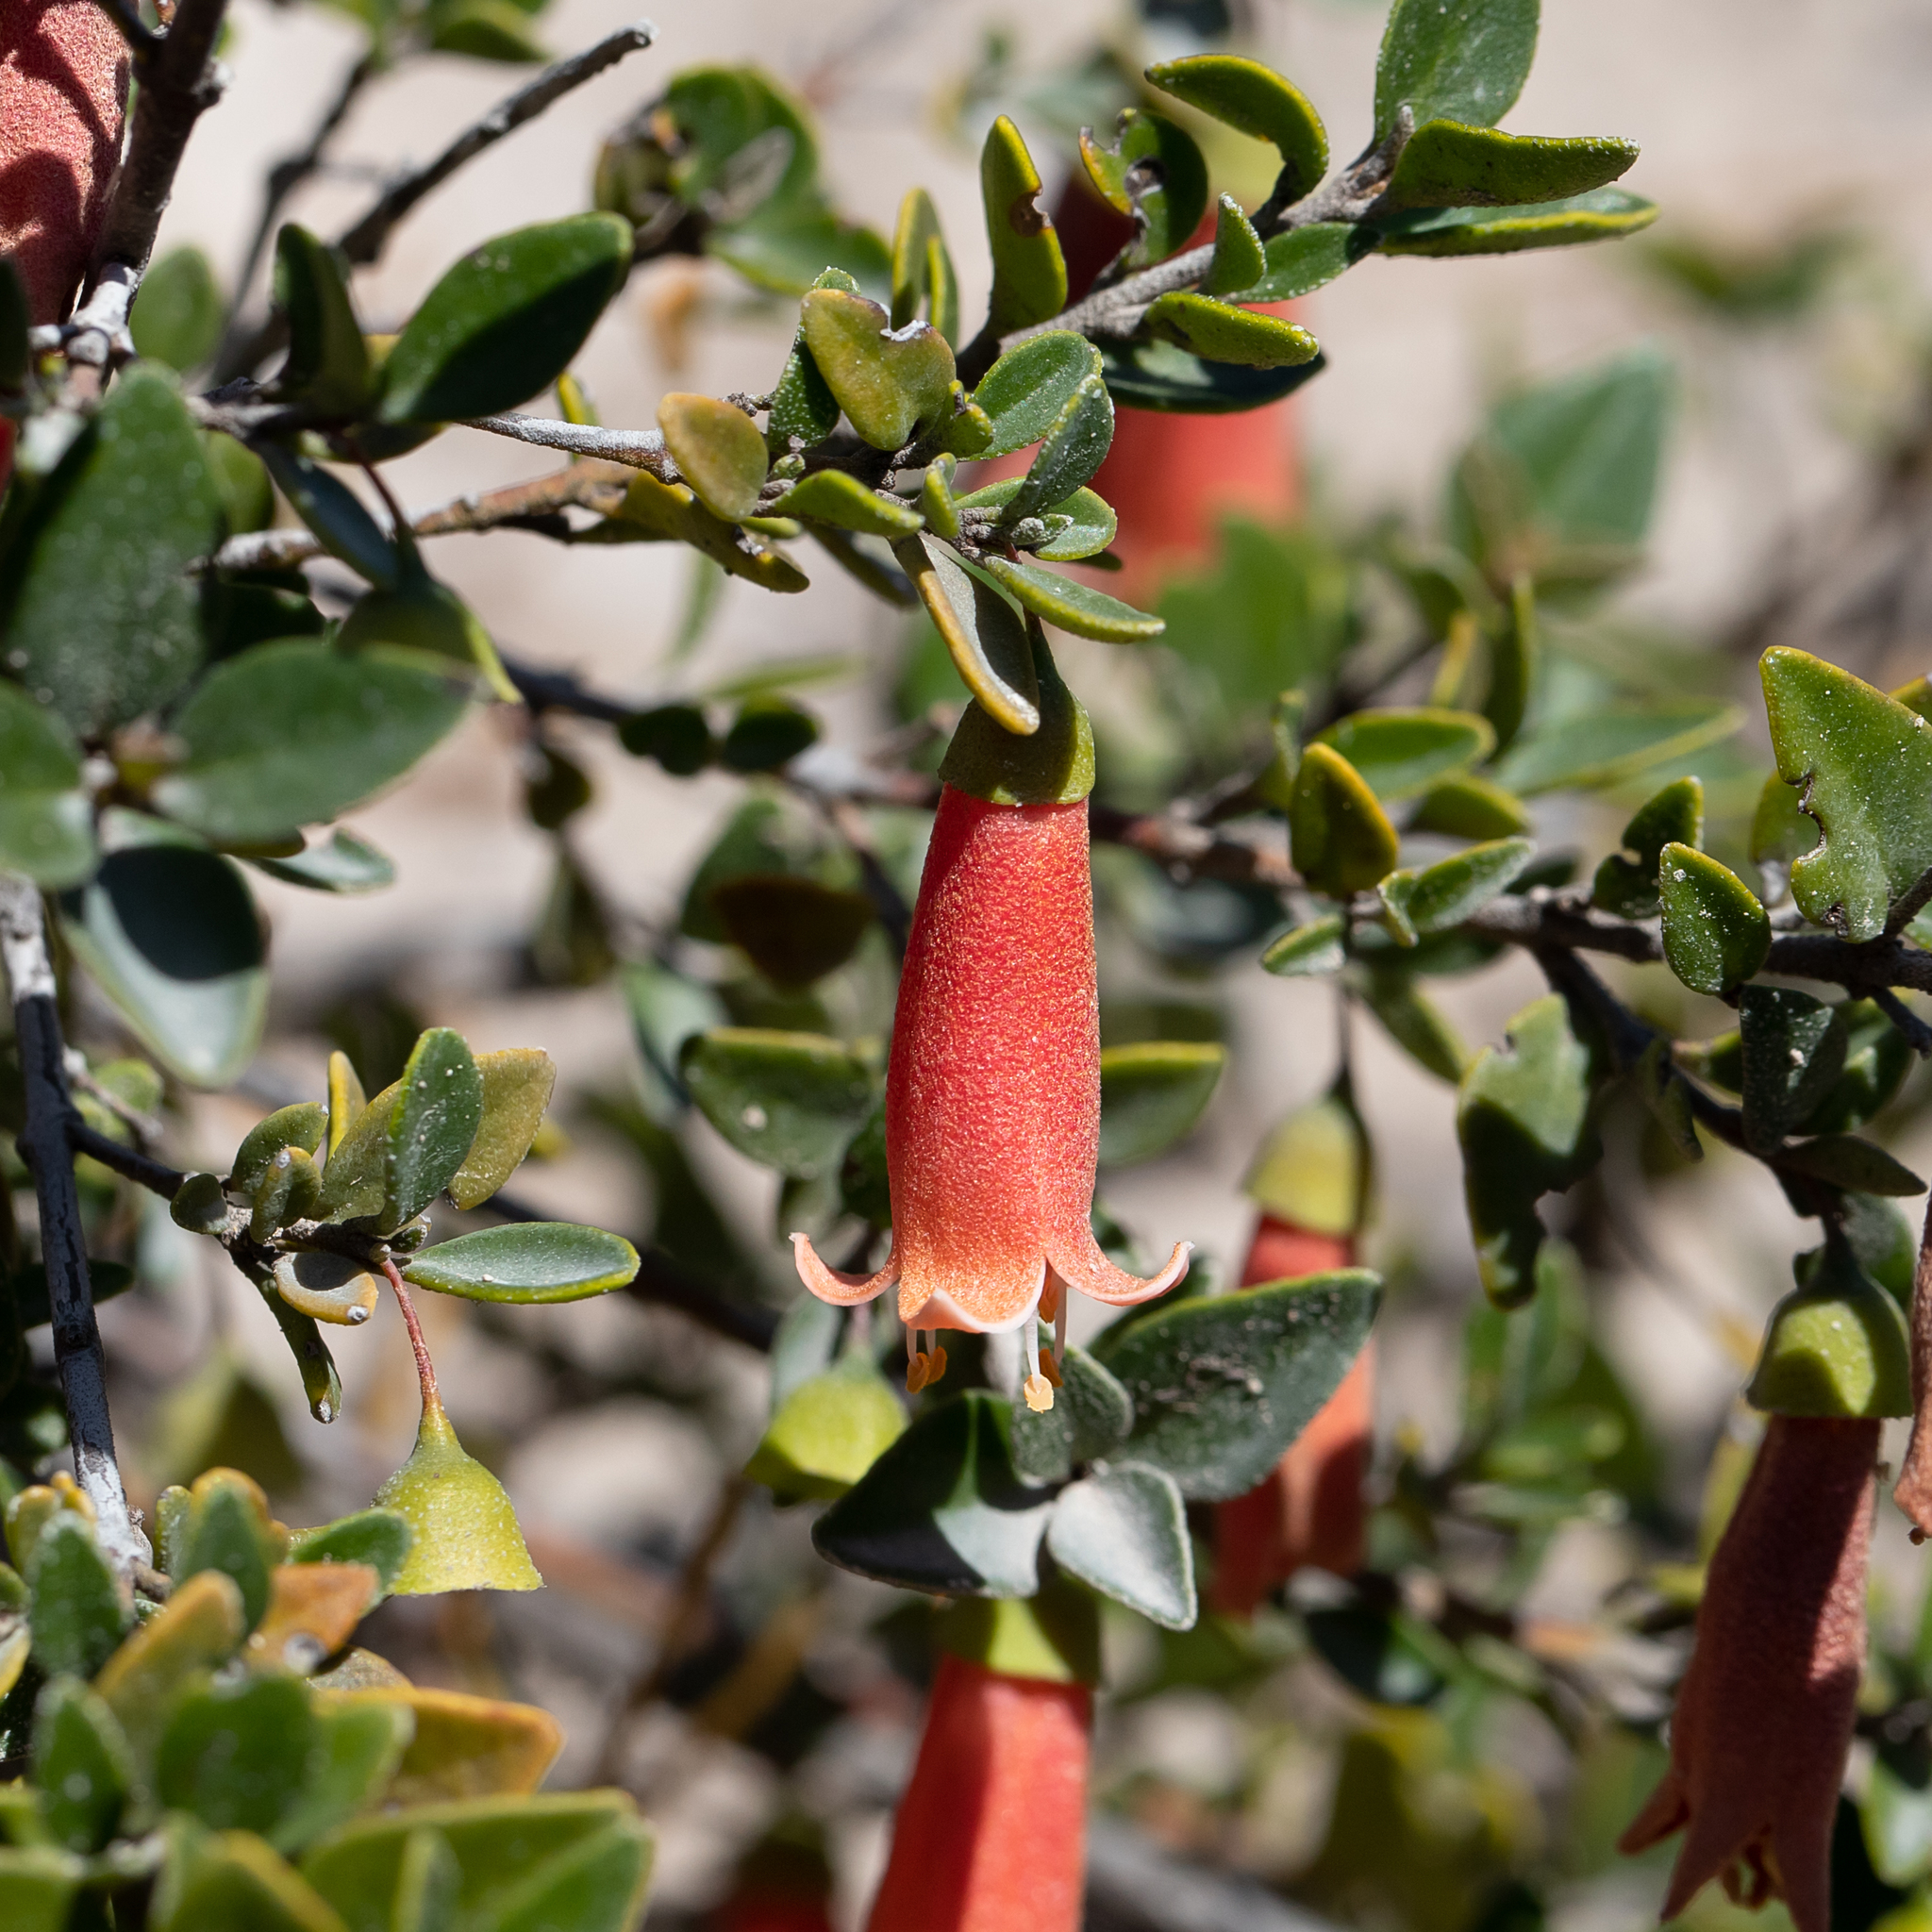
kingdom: Plantae
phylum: Tracheophyta
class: Magnoliopsida
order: Sapindales
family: Rutaceae
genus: Correa
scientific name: Correa pulchella
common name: Salmon correa
